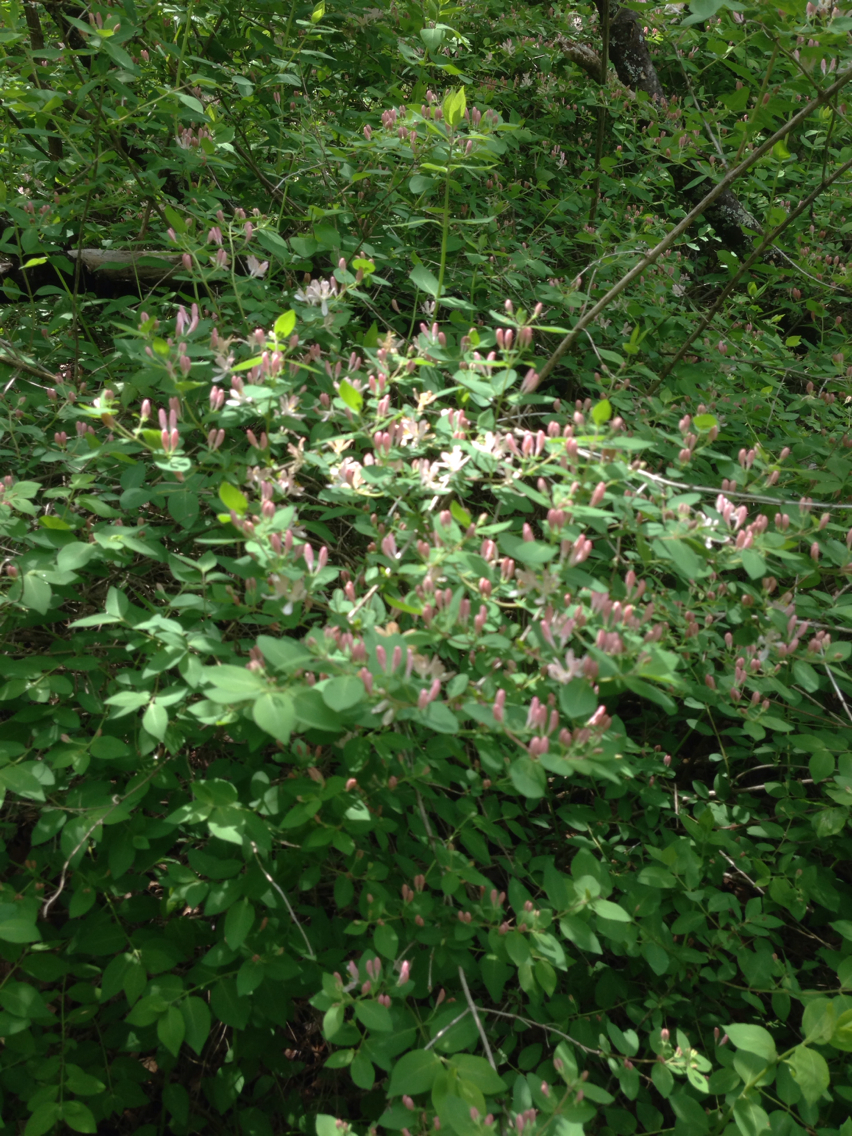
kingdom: Plantae
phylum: Tracheophyta
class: Magnoliopsida
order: Dipsacales
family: Caprifoliaceae
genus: Lonicera
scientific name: Lonicera tatarica
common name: Tatarian honeysuckle
